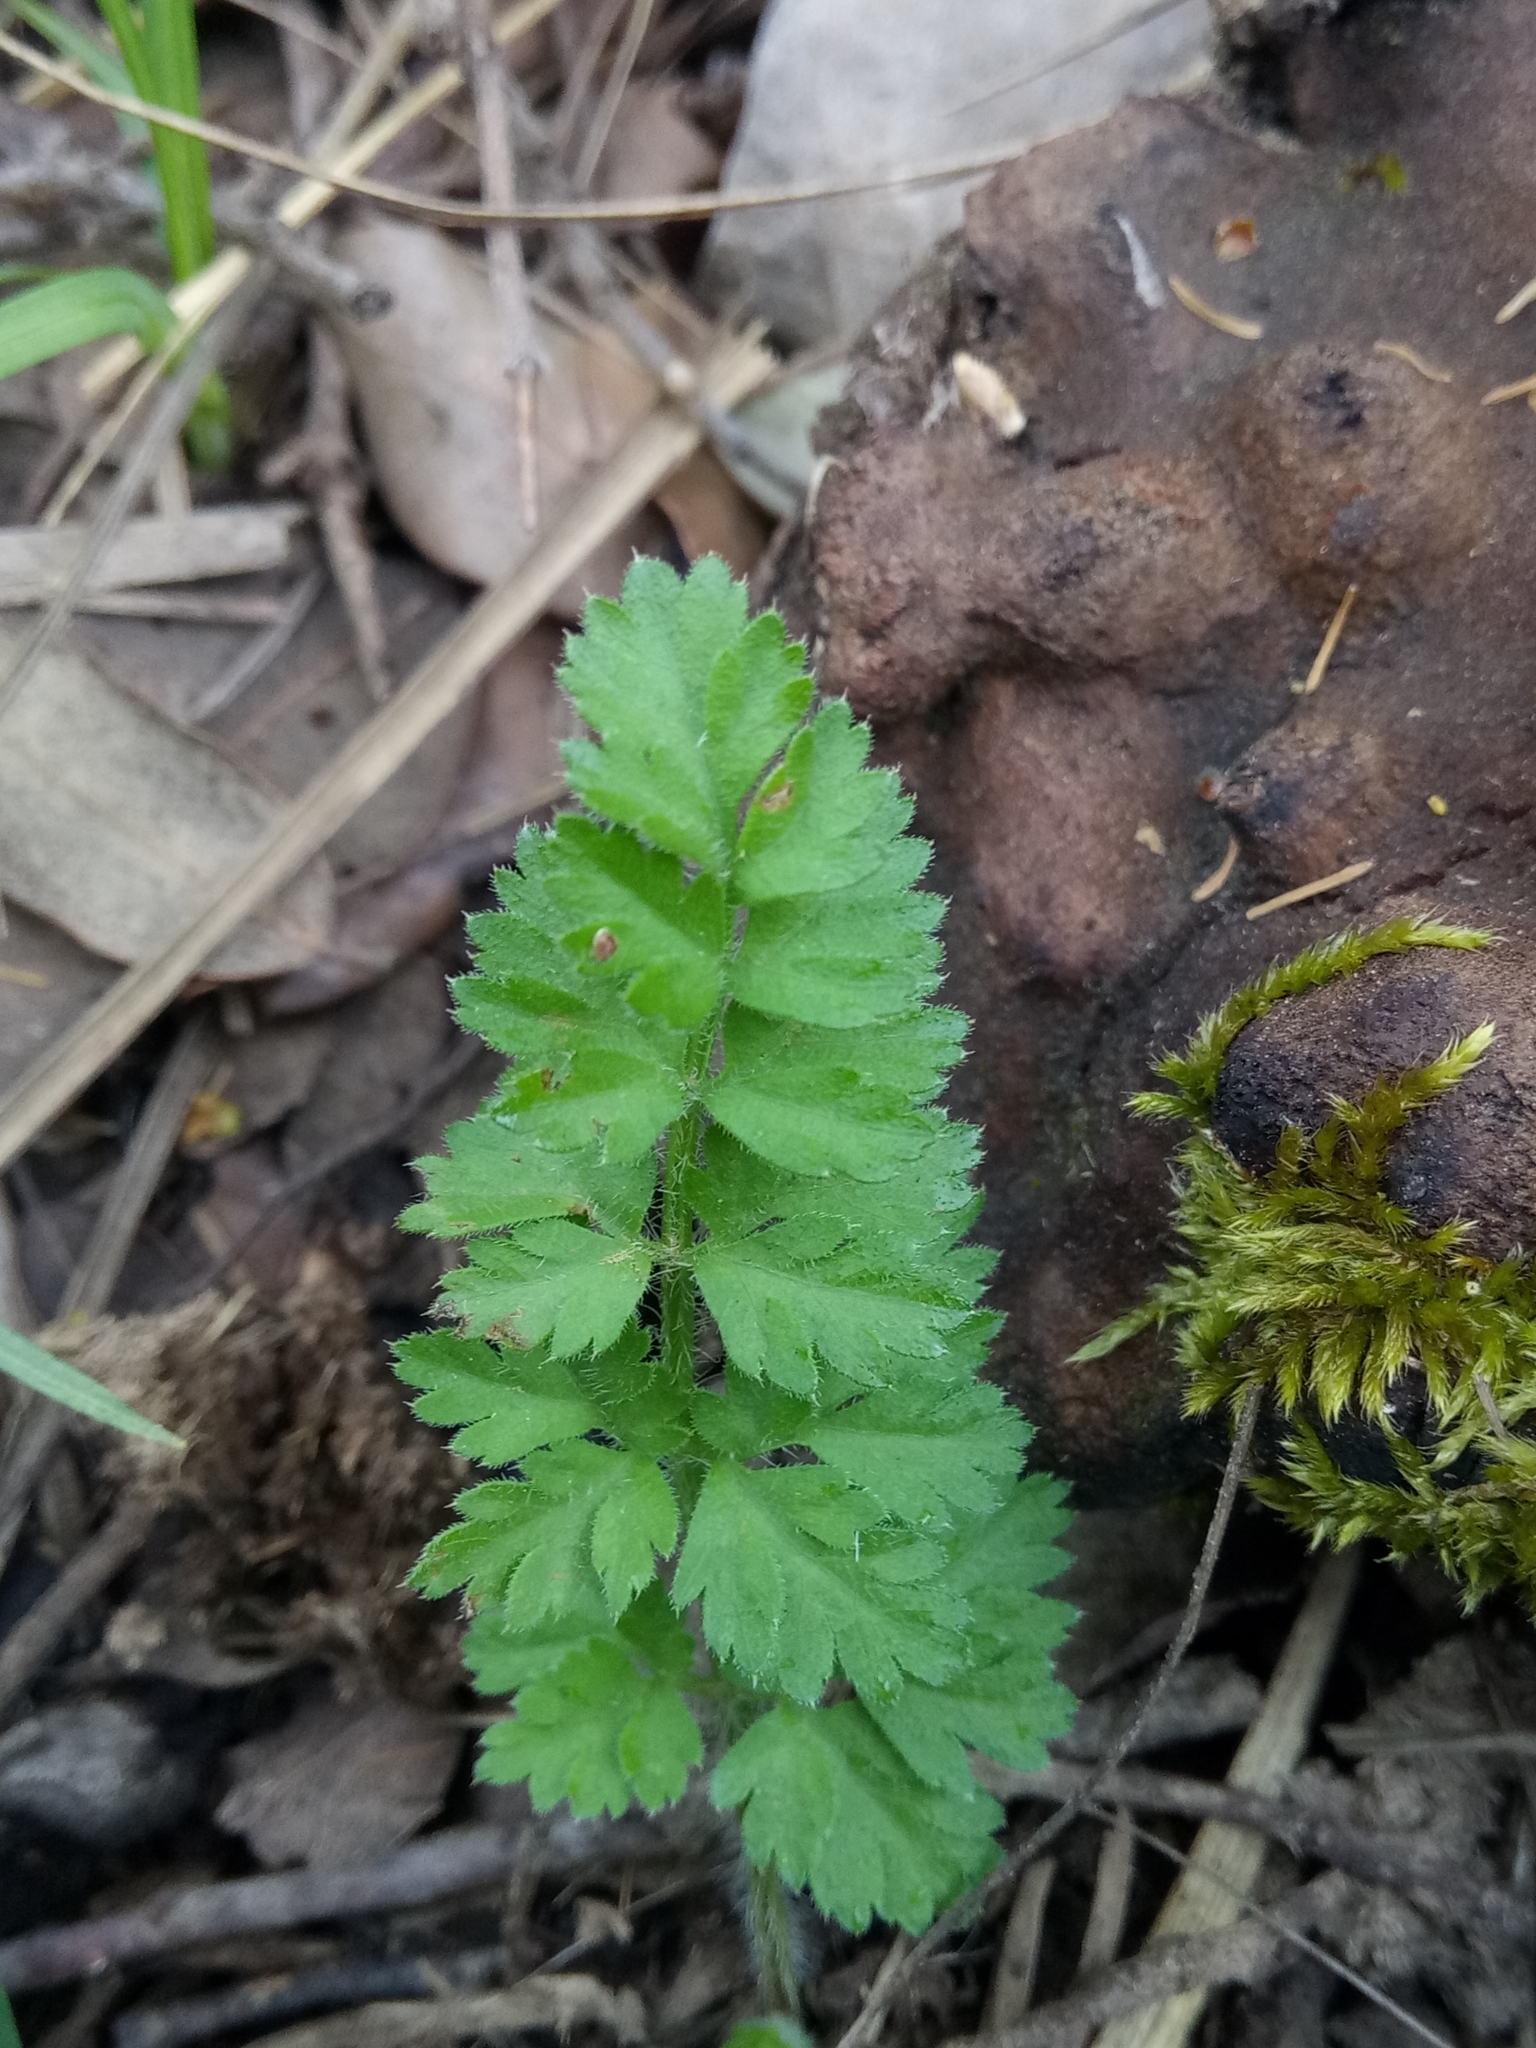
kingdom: Plantae
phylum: Tracheophyta
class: Magnoliopsida
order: Apiales
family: Apiaceae
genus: Daucus
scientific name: Daucus carota
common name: Wild carrot
